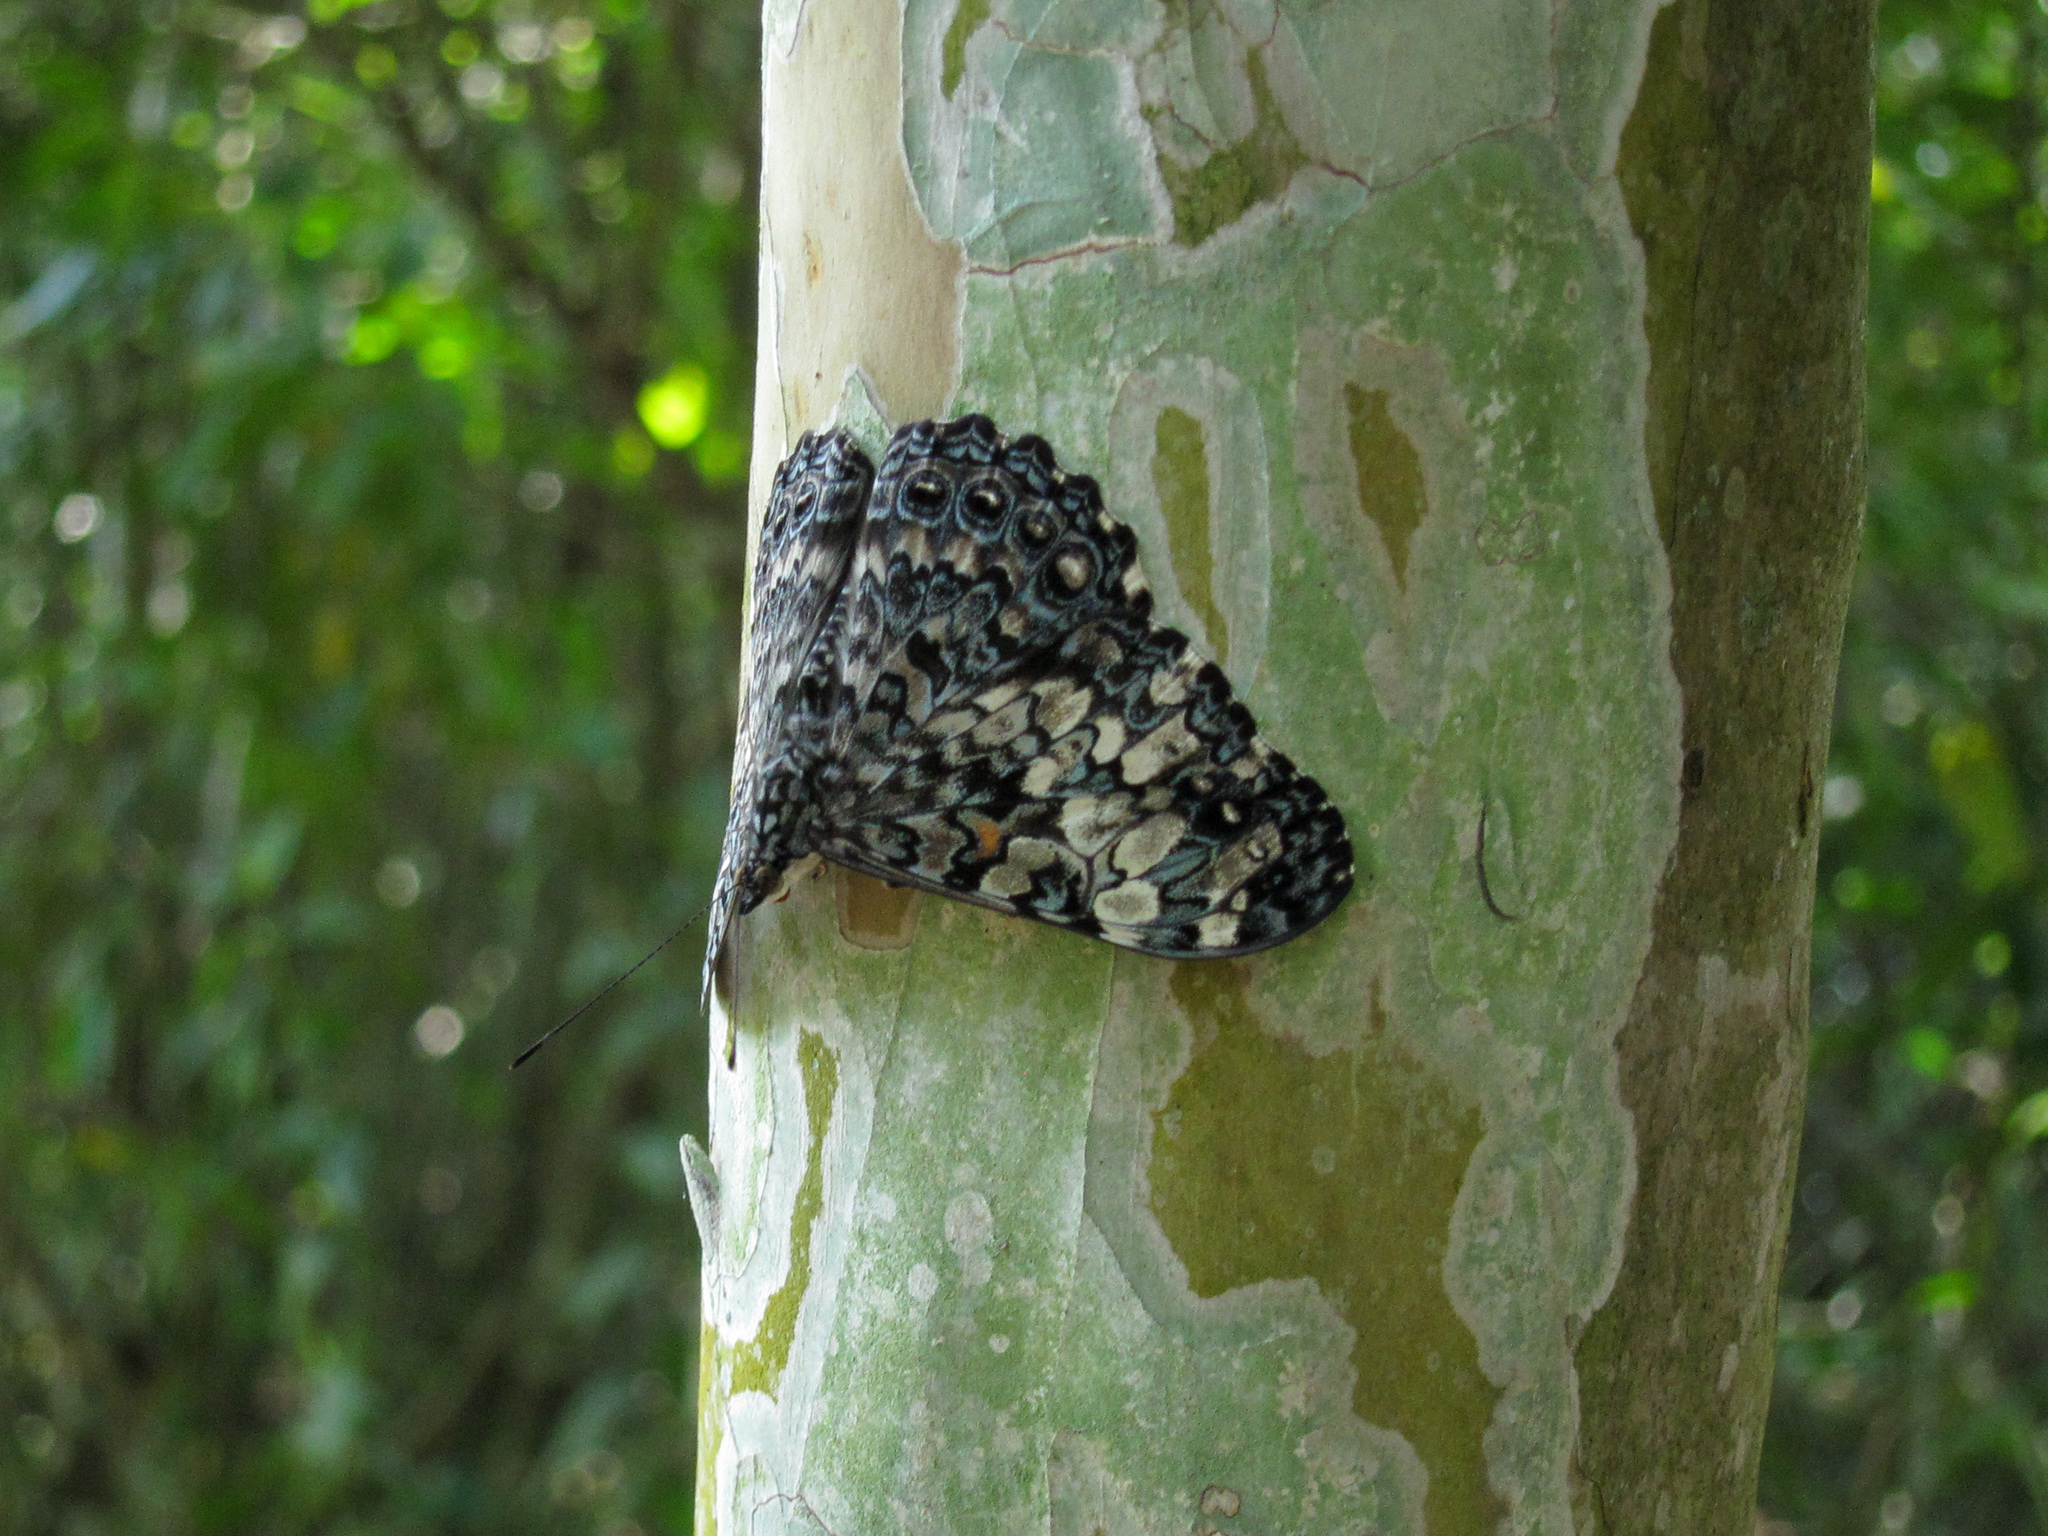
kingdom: Animalia
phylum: Arthropoda
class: Insecta
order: Lepidoptera
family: Nymphalidae
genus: Hamadryas
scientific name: Hamadryas epinome
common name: Epinome cracker
